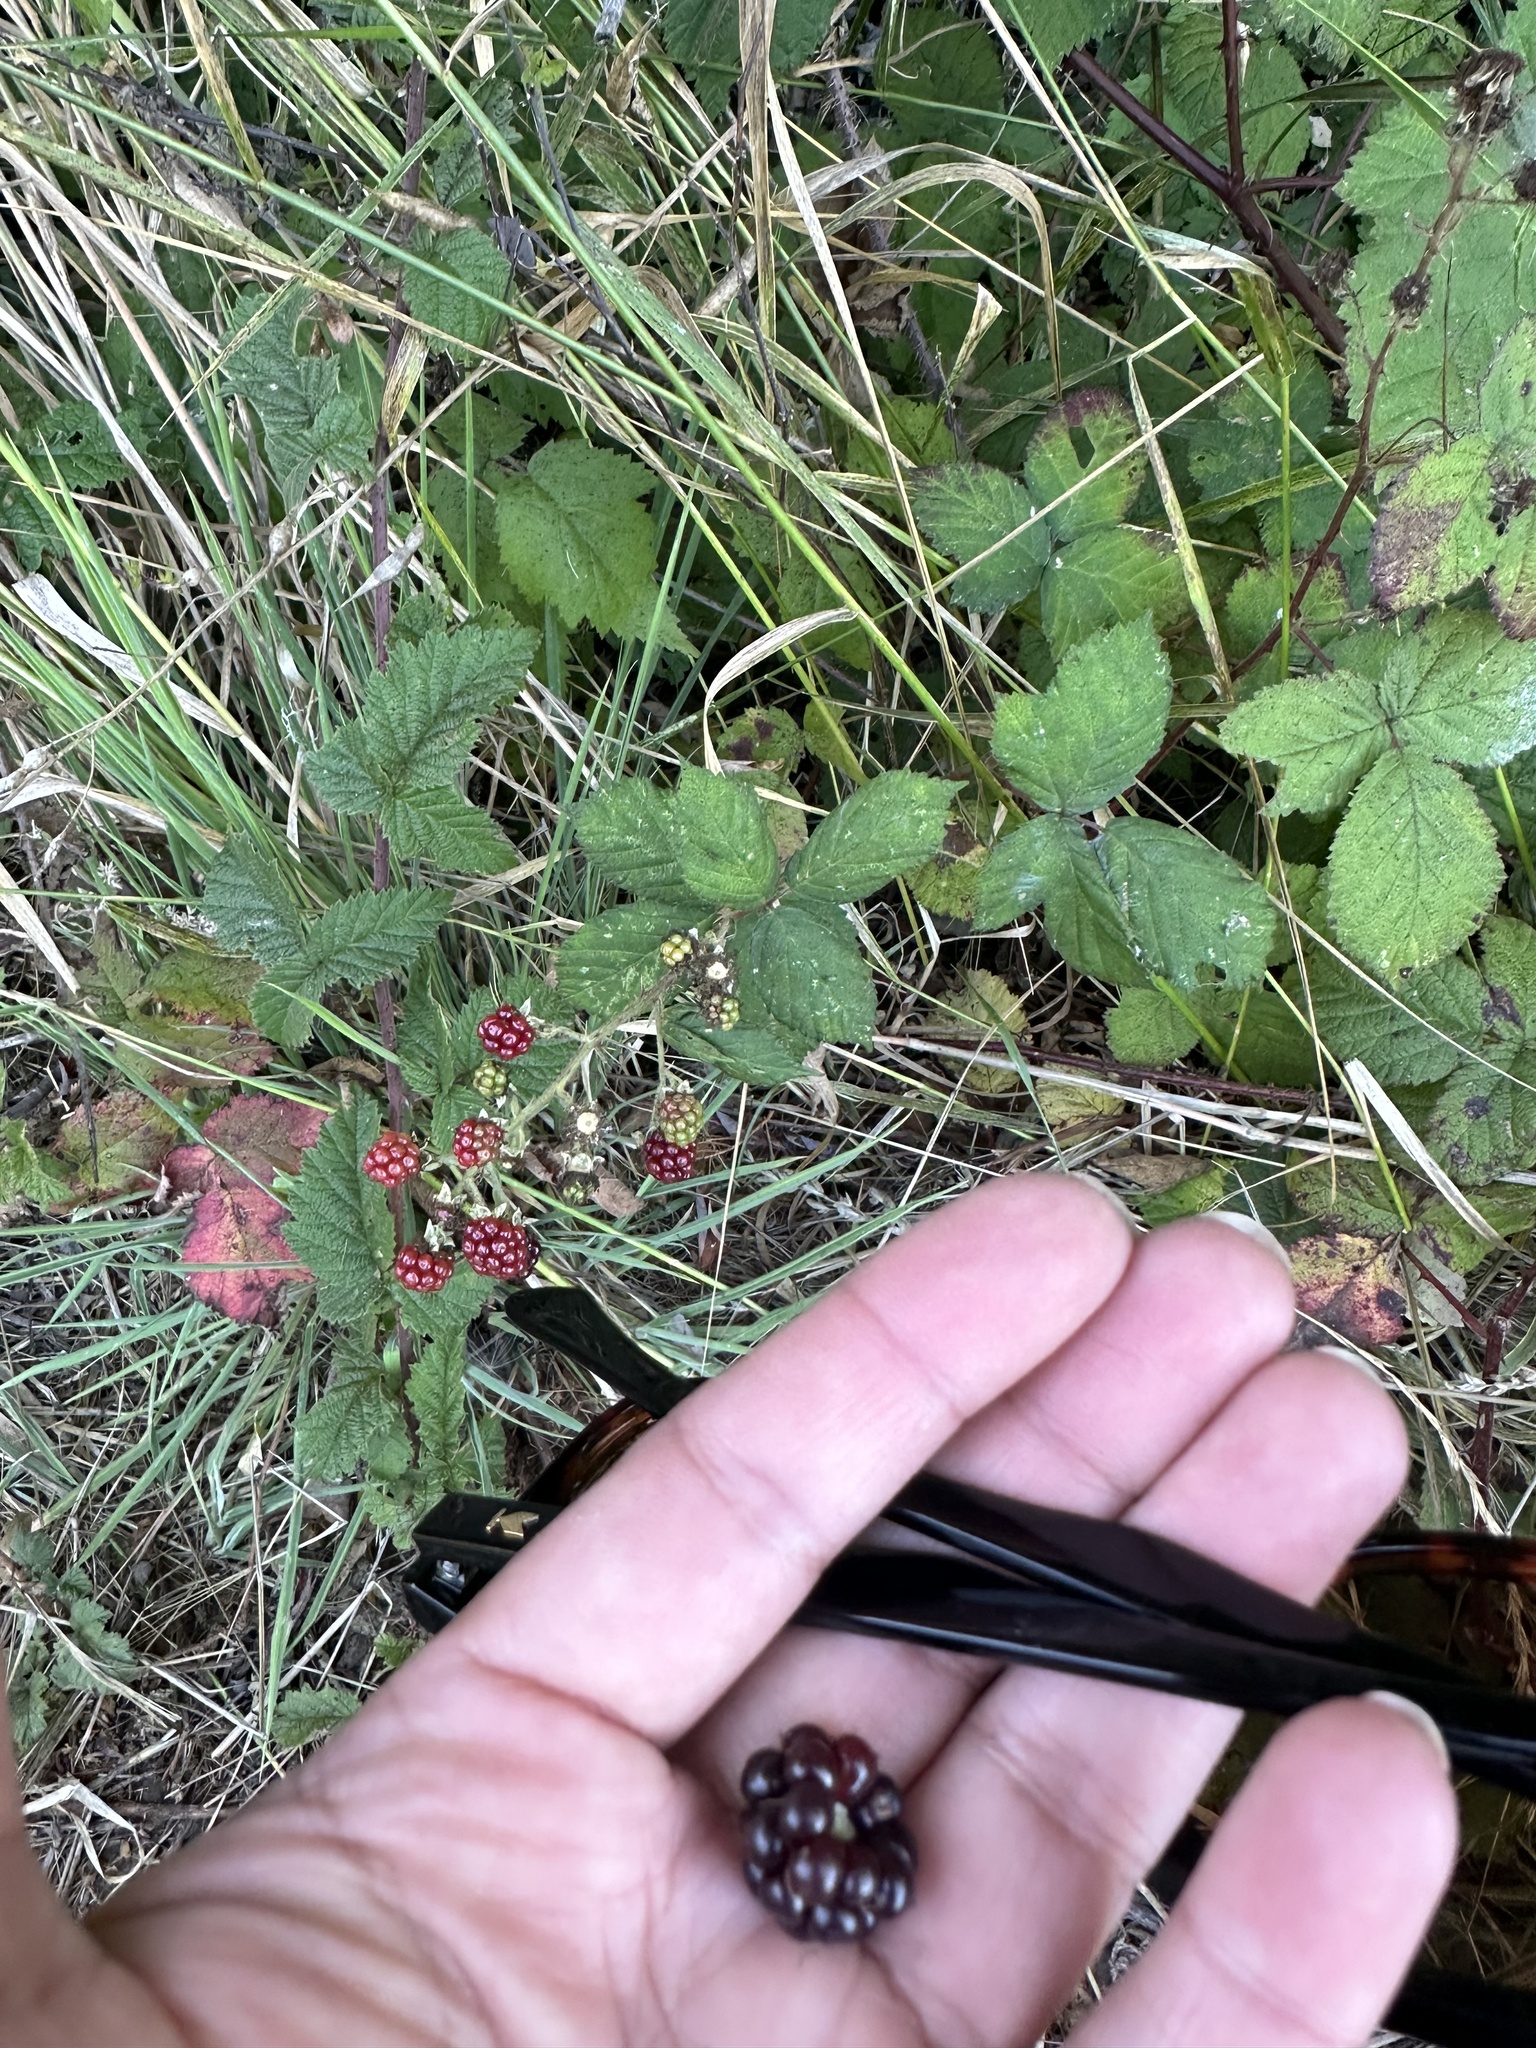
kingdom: Plantae
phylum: Tracheophyta
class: Magnoliopsida
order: Rosales
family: Rosaceae
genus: Rubus
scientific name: Rubus ursinus
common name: Pacific blackberry
